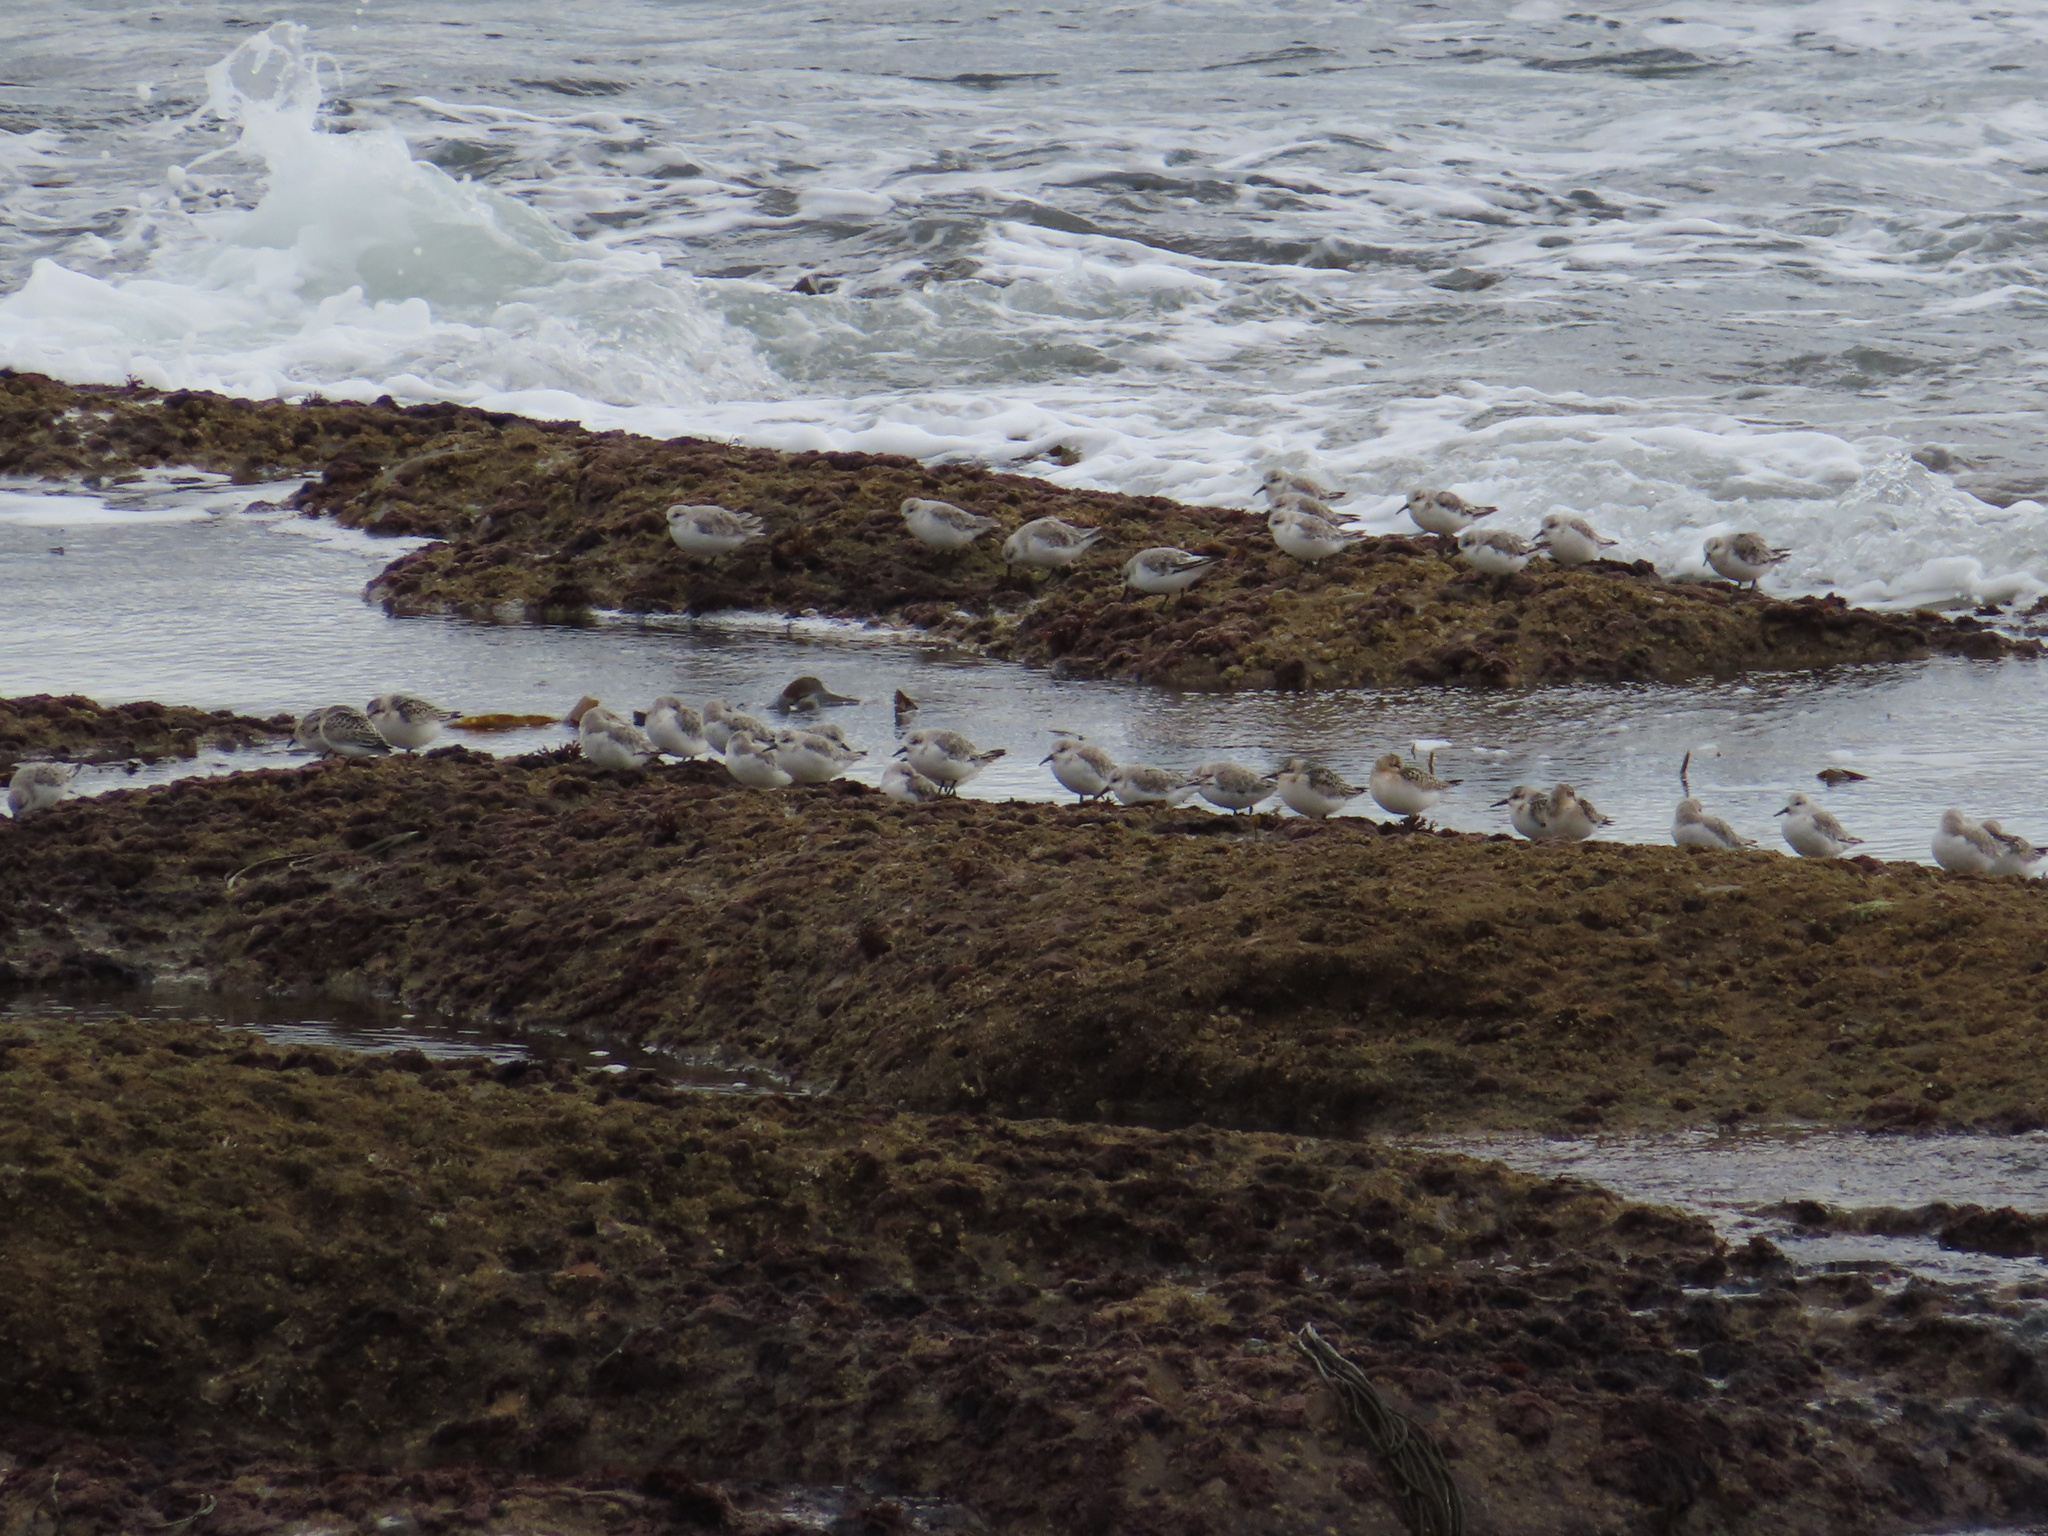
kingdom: Animalia
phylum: Chordata
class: Aves
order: Charadriiformes
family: Scolopacidae
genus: Calidris
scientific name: Calidris alba
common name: Sanderling
